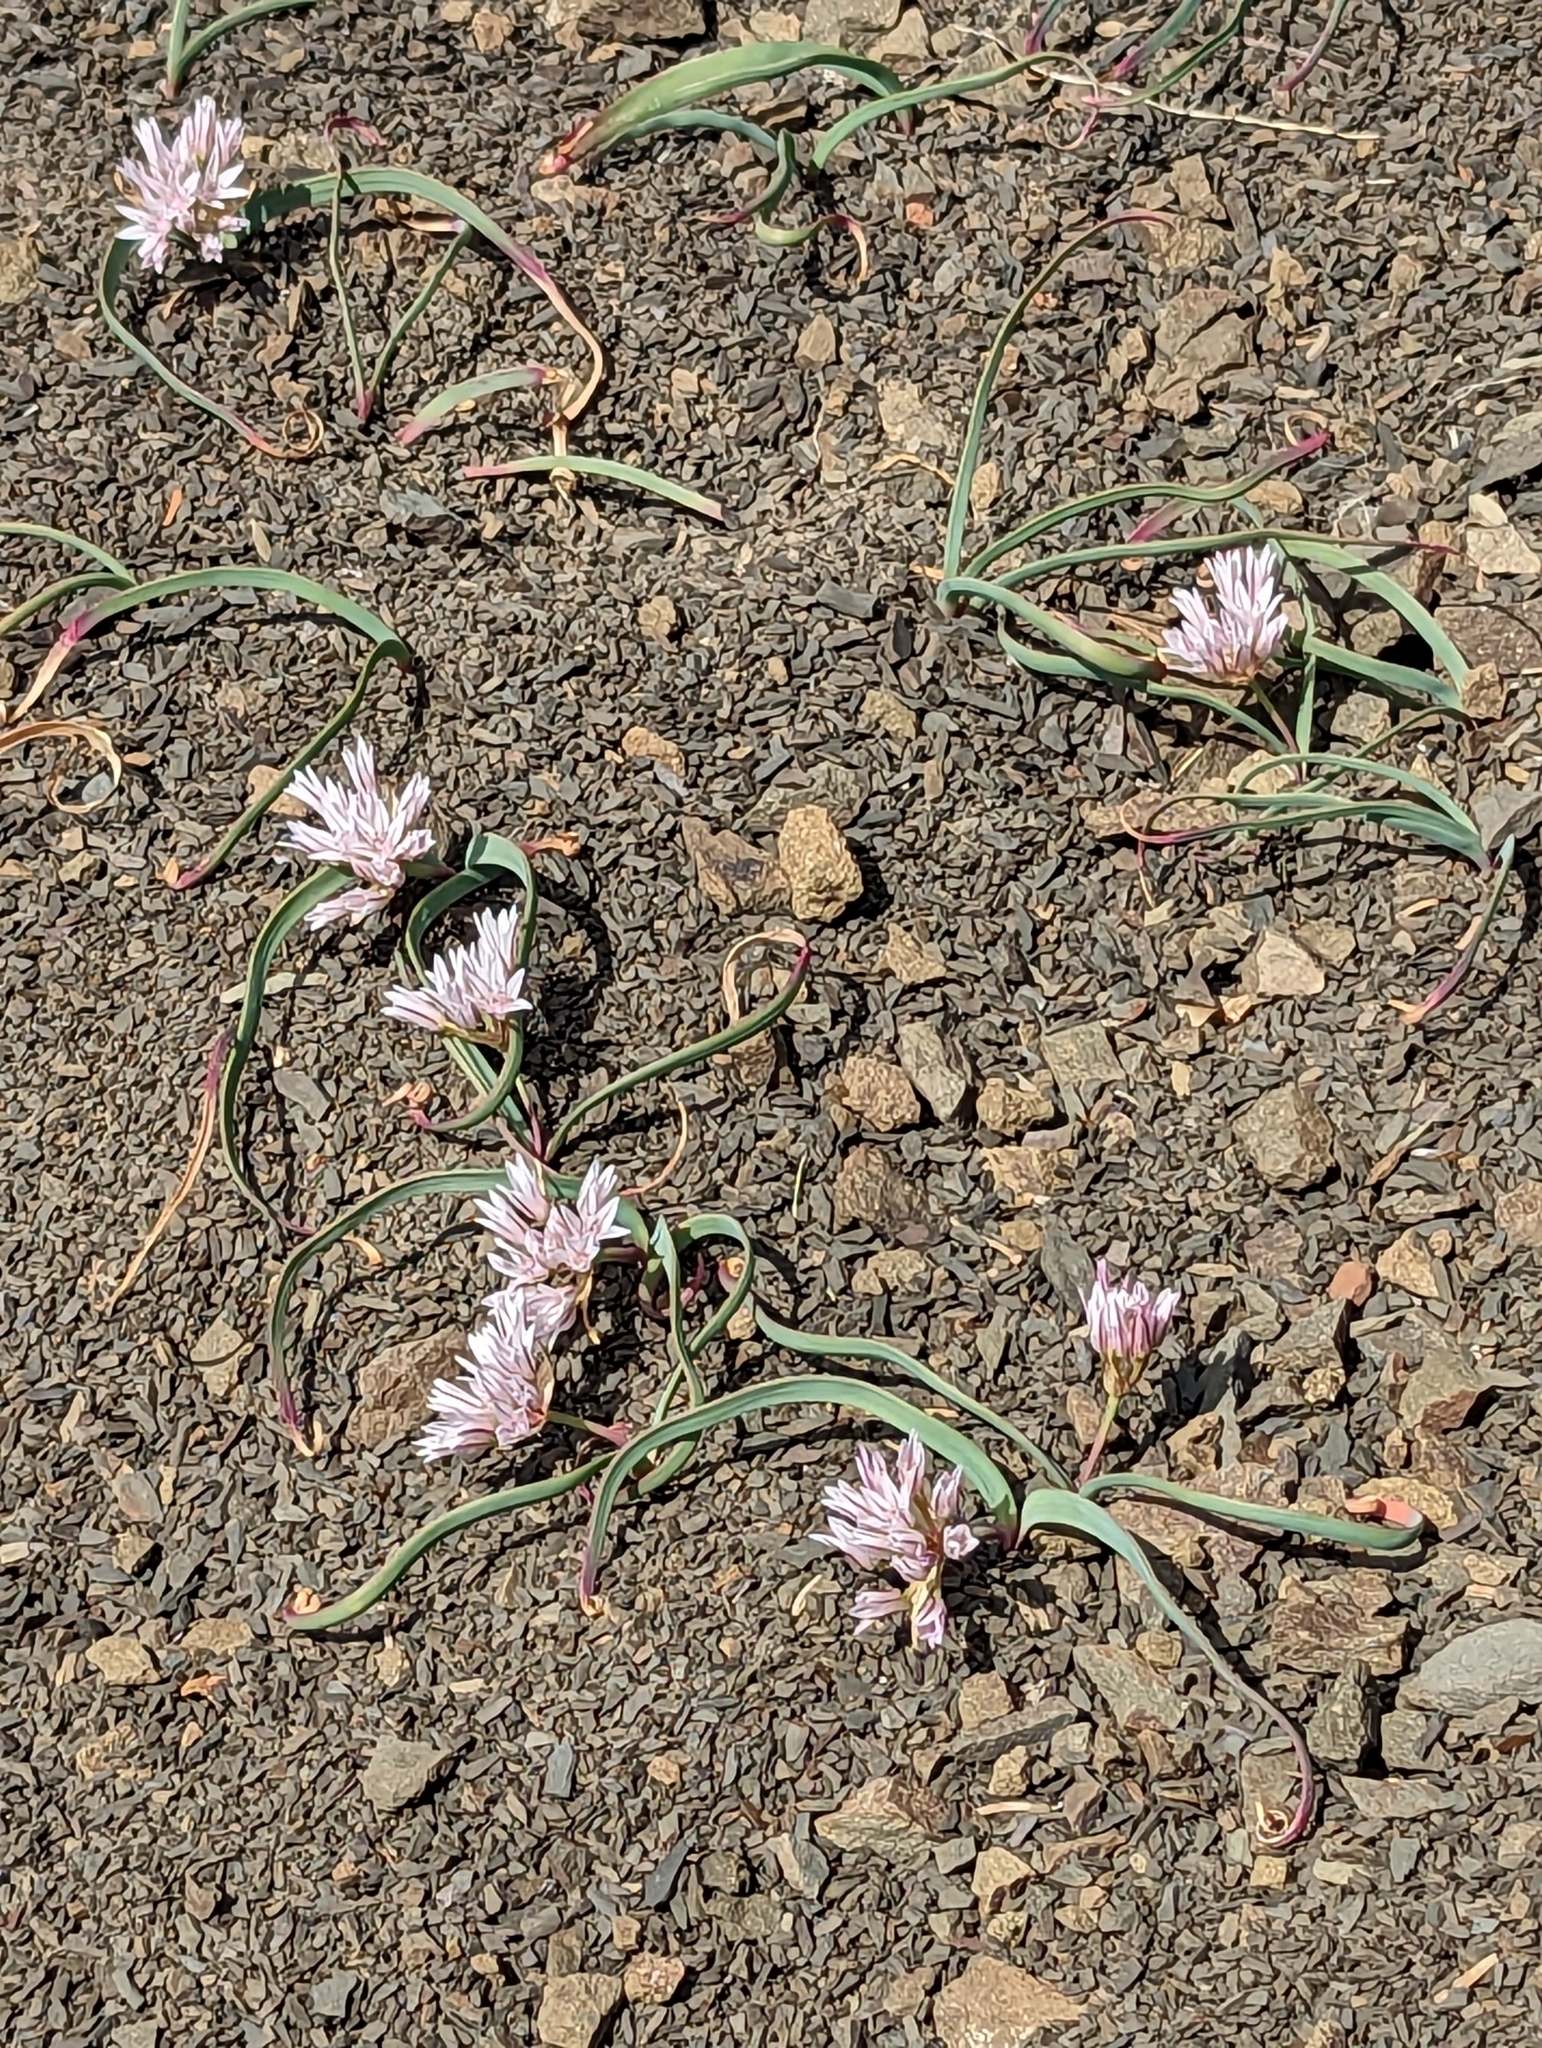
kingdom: Plantae
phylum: Tracheophyta
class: Liliopsida
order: Asparagales
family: Amaryllidaceae
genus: Allium
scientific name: Allium crenulatum
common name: Olympic onion
